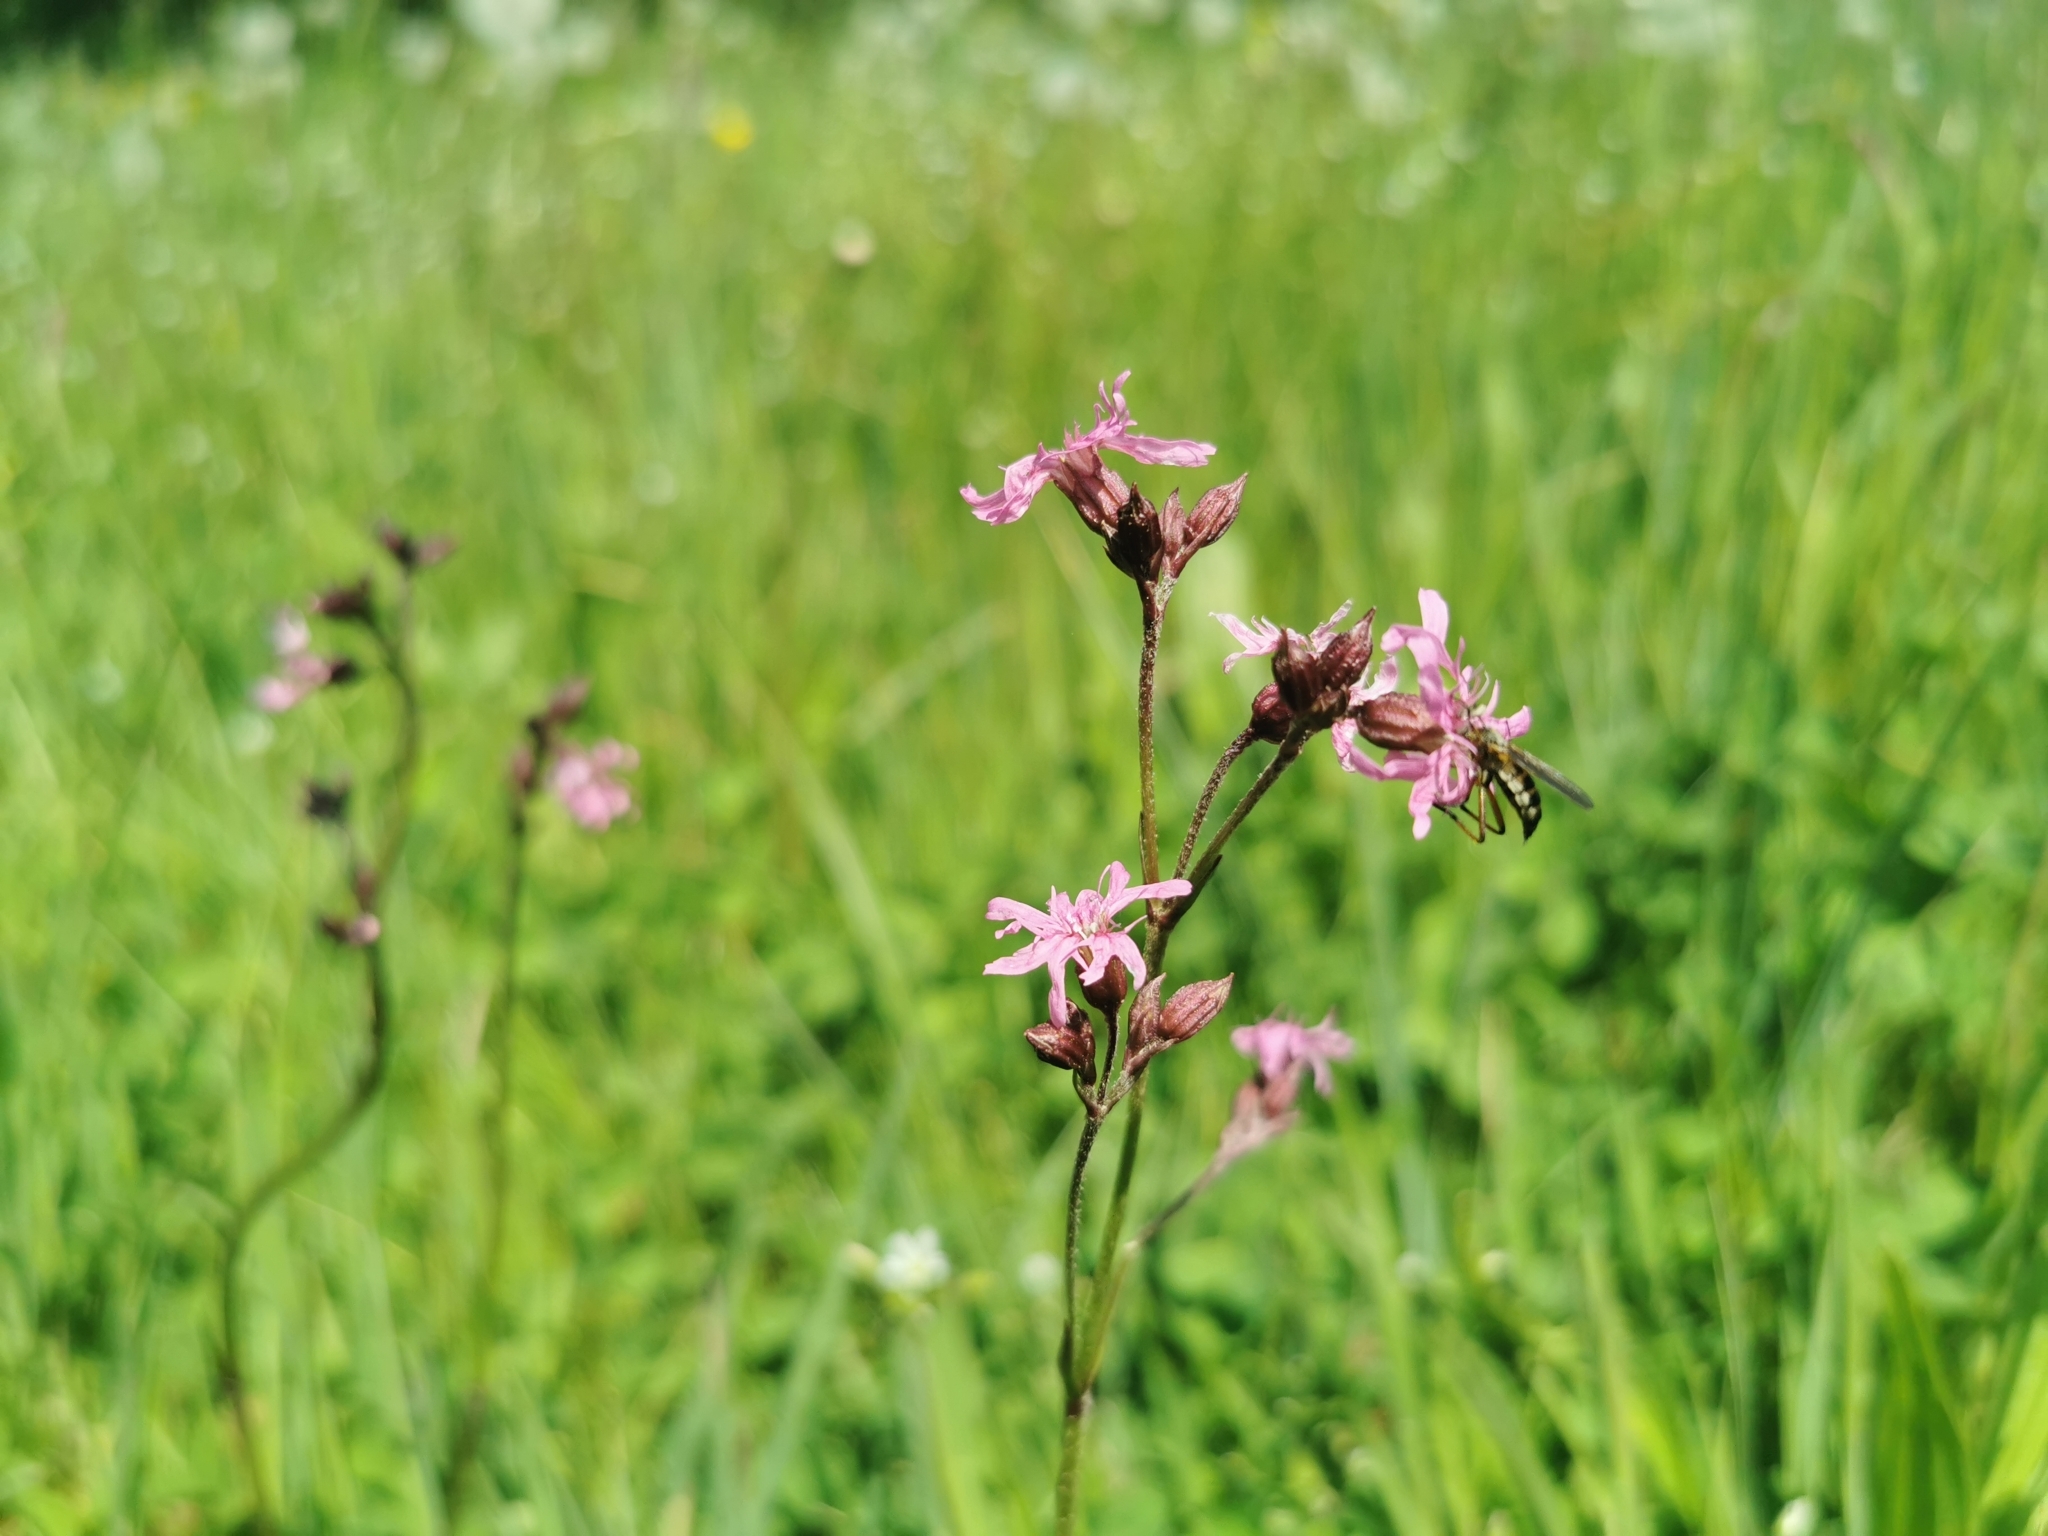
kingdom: Plantae
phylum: Tracheophyta
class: Magnoliopsida
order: Caryophyllales
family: Caryophyllaceae
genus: Silene
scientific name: Silene flos-cuculi
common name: Ragged-robin
